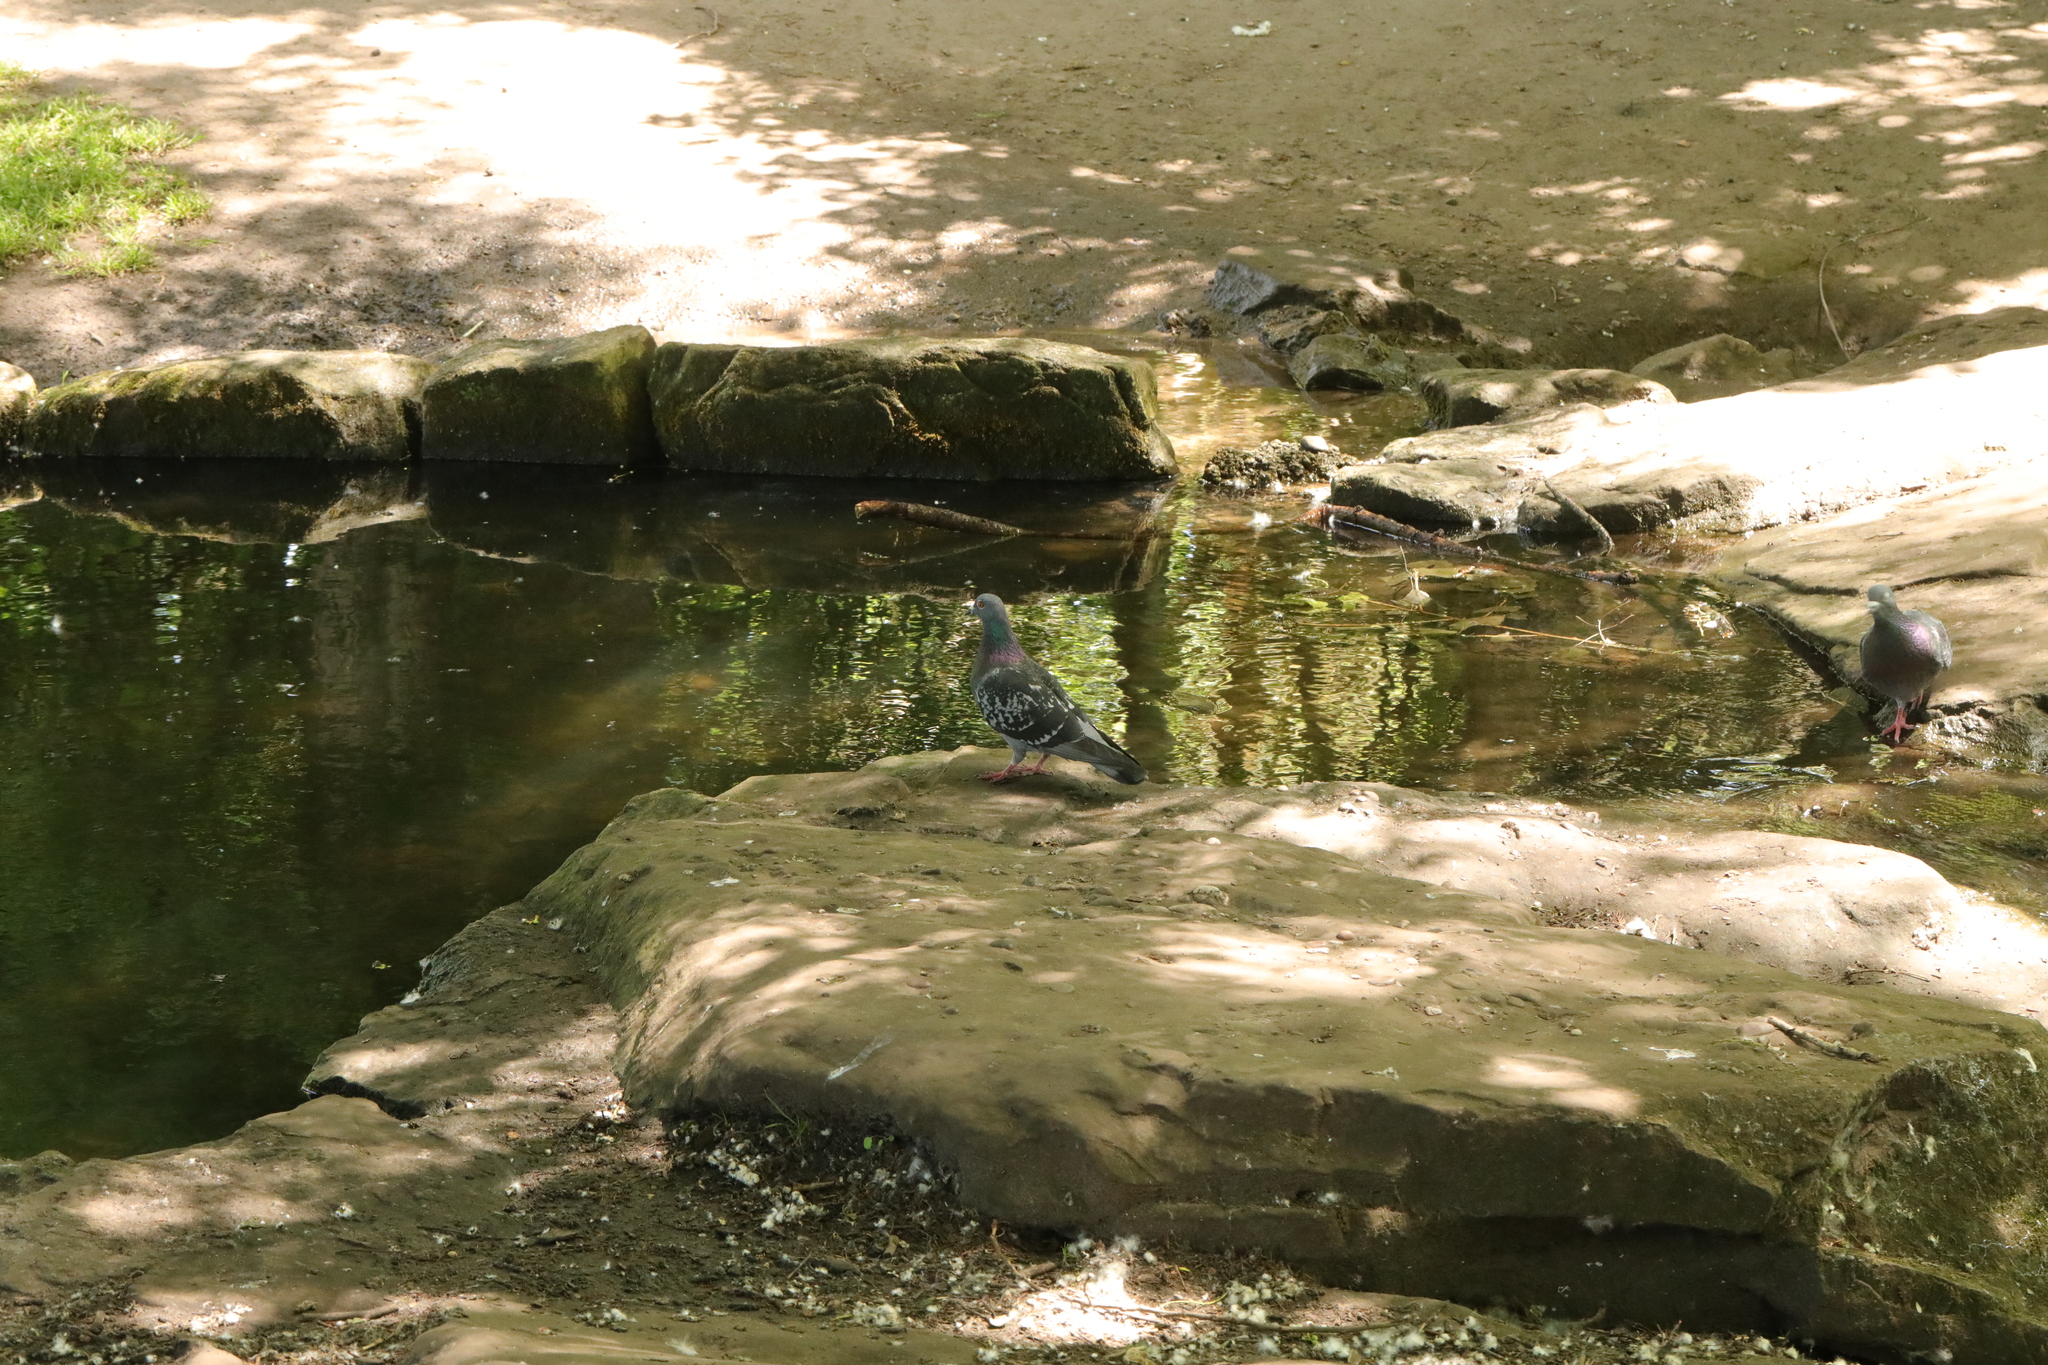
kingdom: Animalia
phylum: Chordata
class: Aves
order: Columbiformes
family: Columbidae
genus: Columba
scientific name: Columba livia
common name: Rock pigeon
